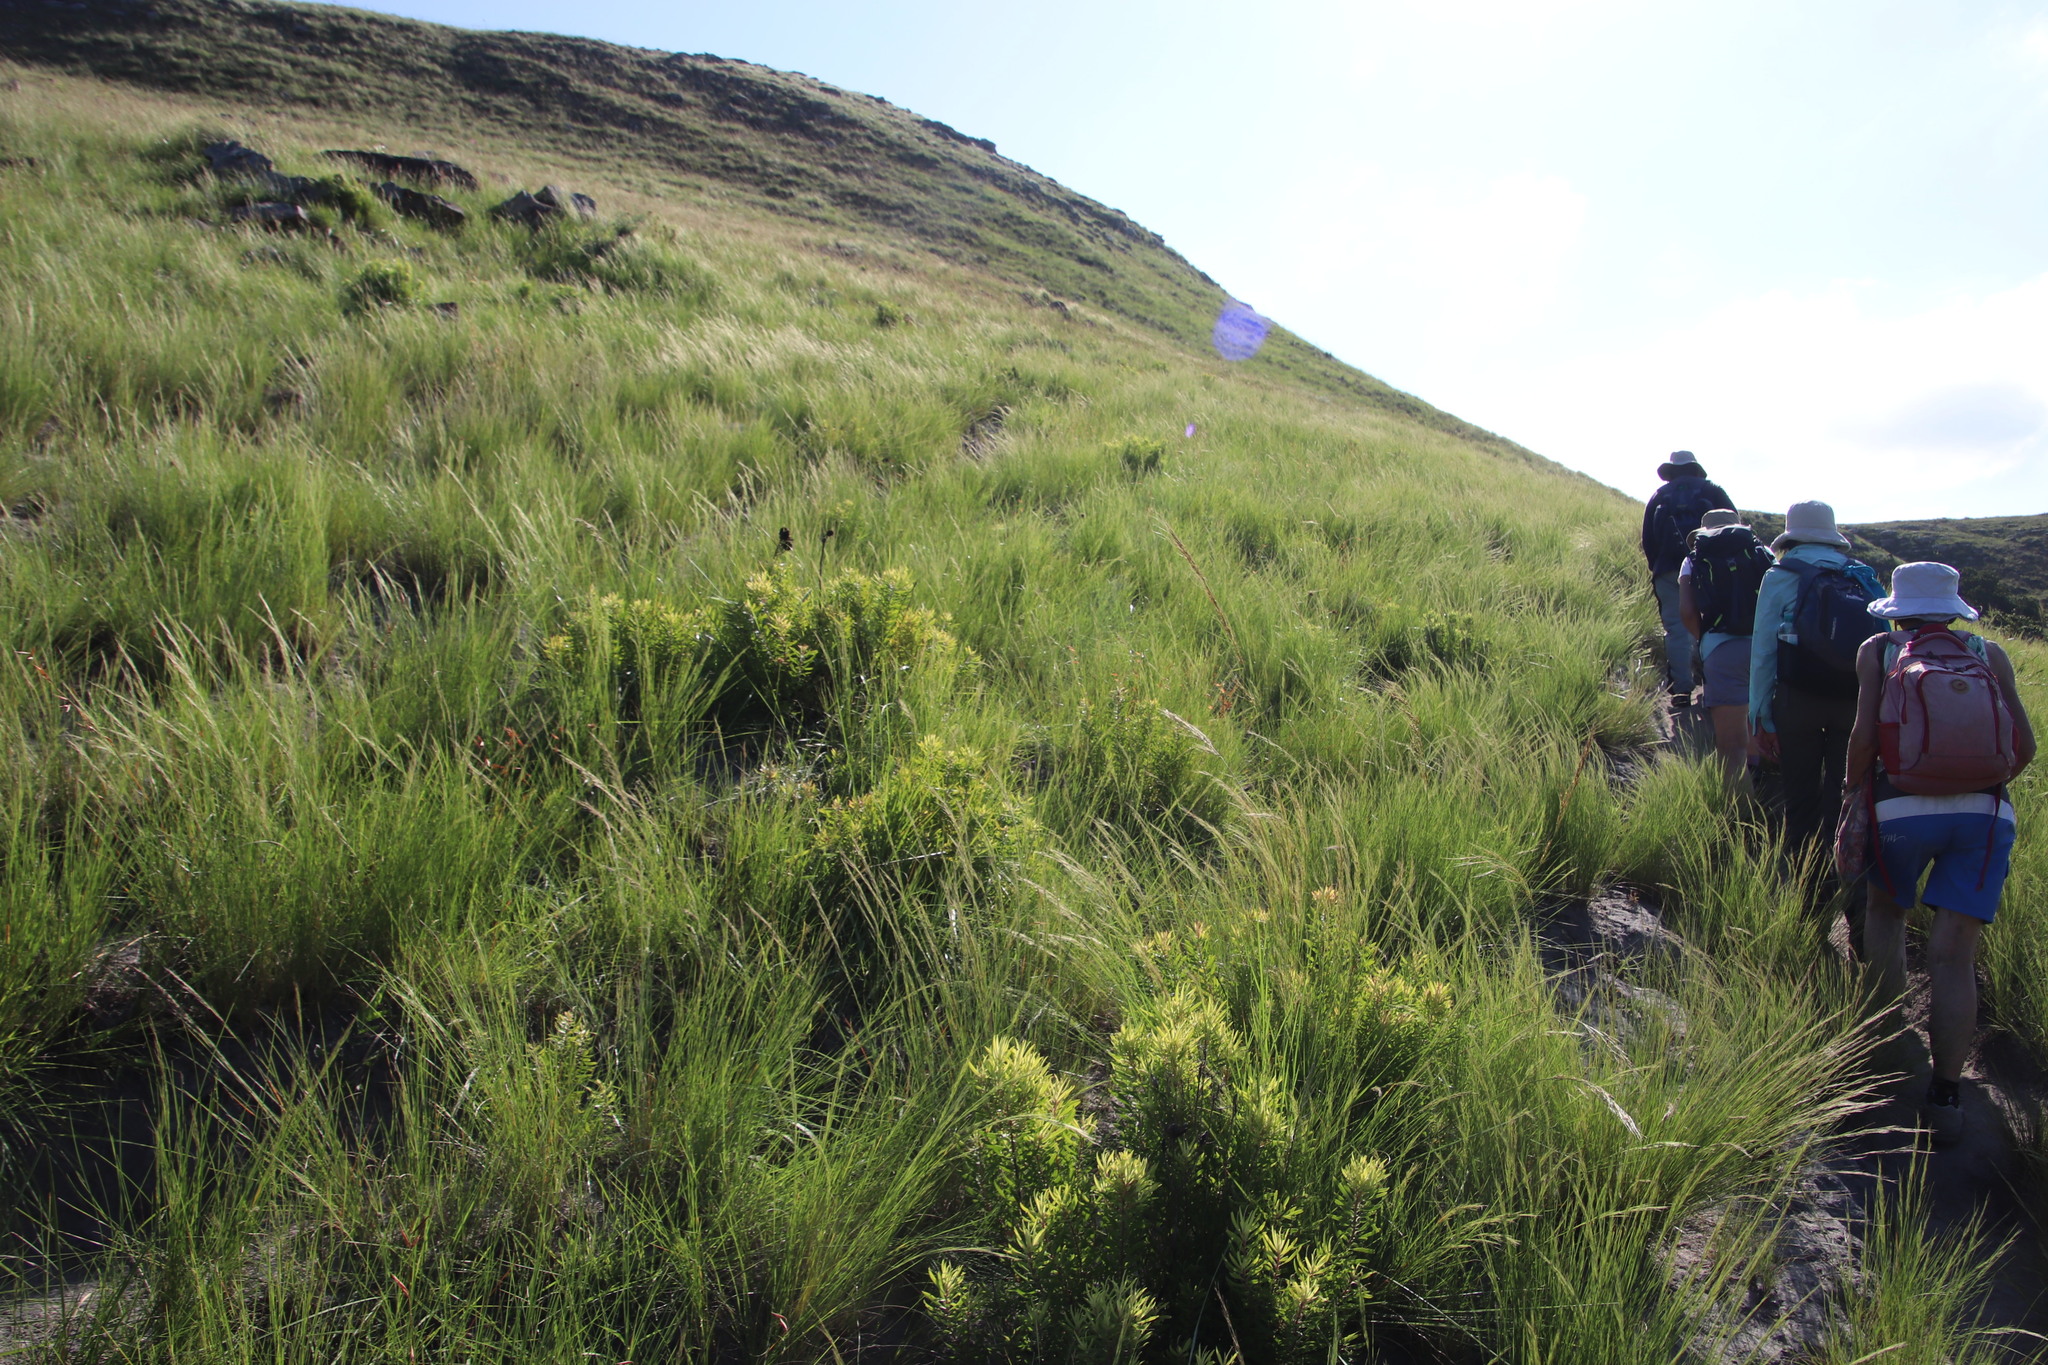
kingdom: Plantae
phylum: Tracheophyta
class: Magnoliopsida
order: Proteales
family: Proteaceae
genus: Leucadendron
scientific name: Leucadendron spissifolium
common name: Spear-leaf conebush
